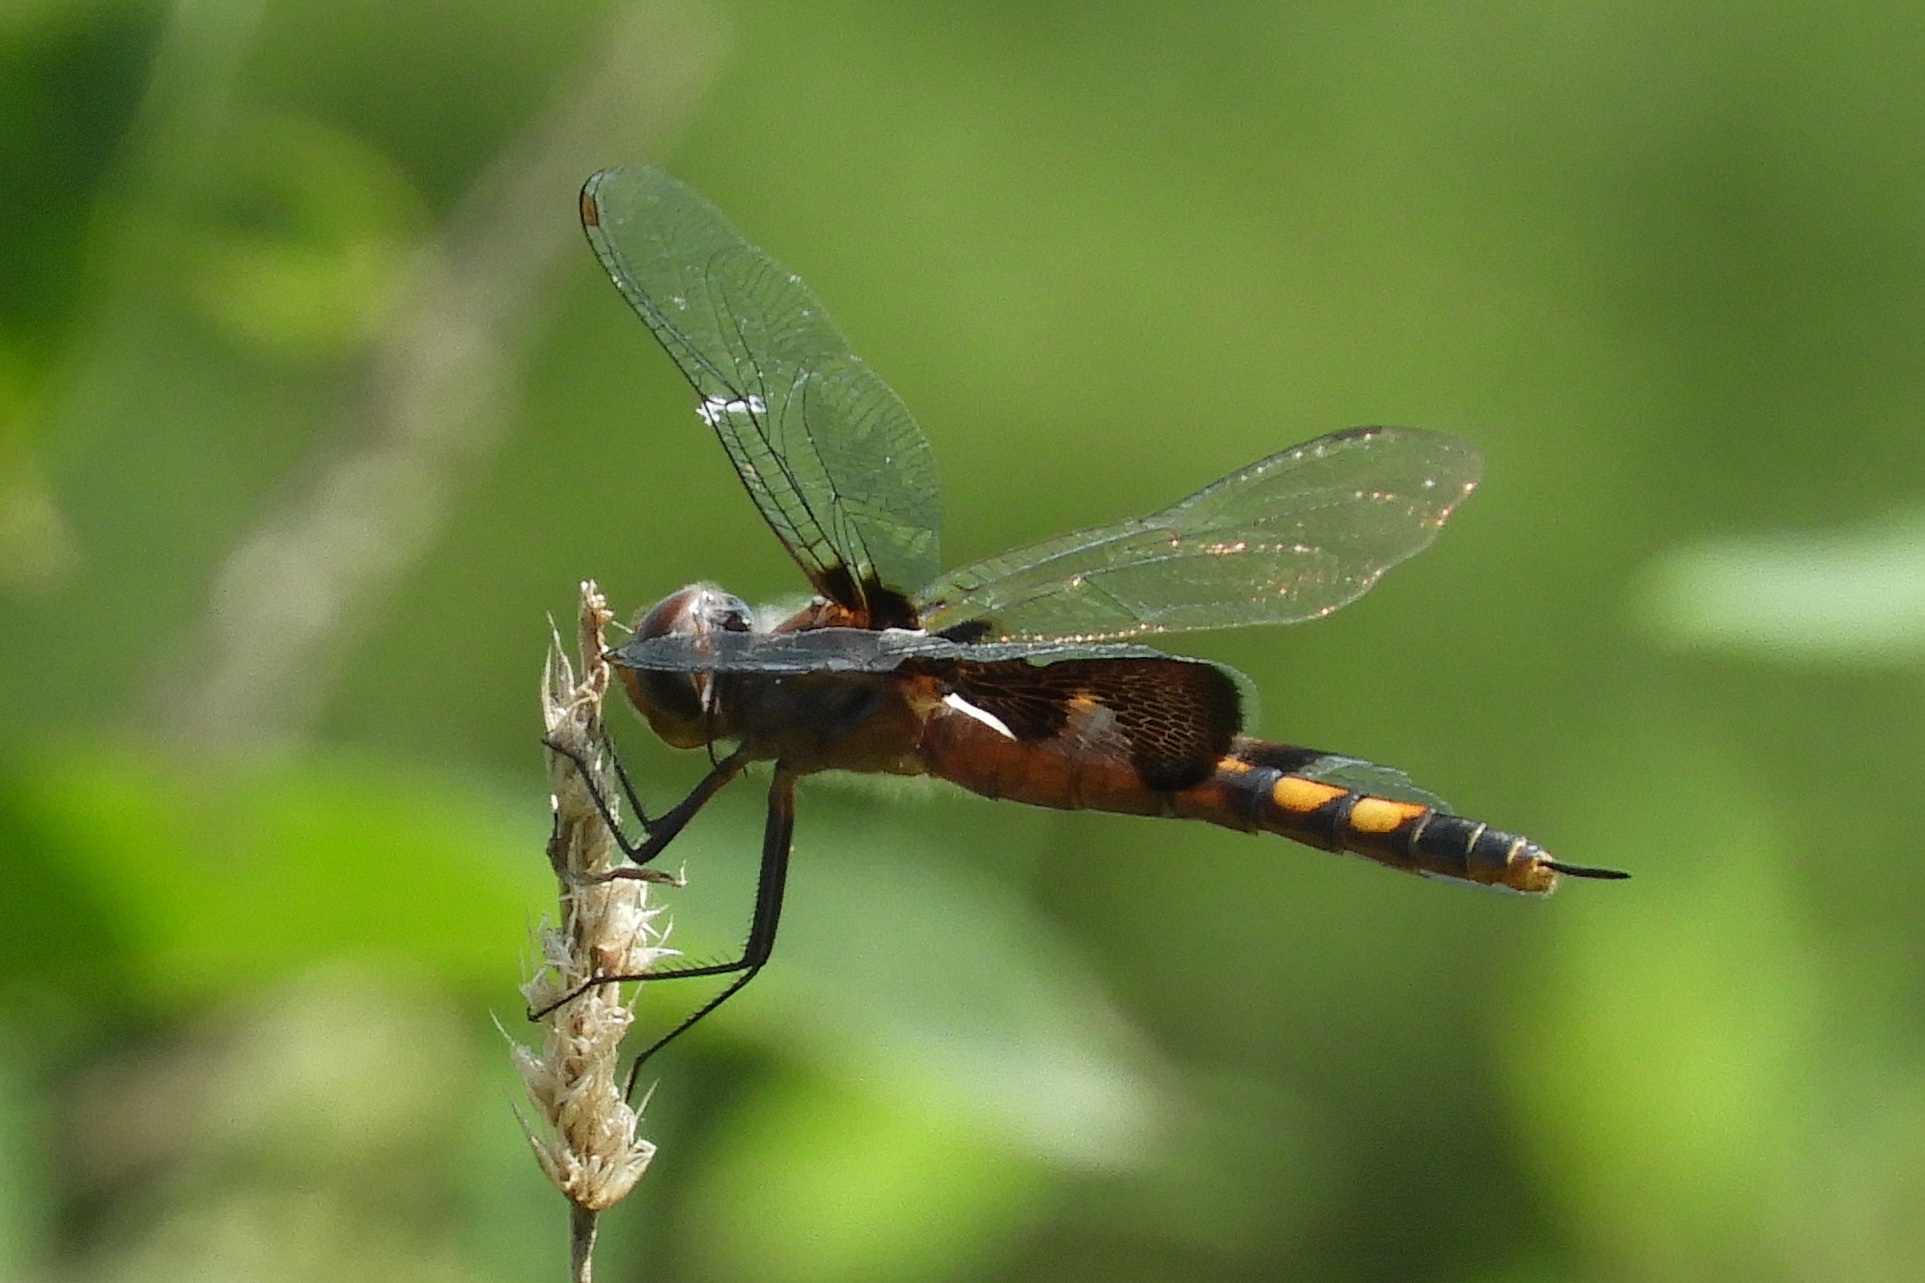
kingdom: Animalia
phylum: Arthropoda
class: Insecta
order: Odonata
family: Libellulidae
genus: Tramea
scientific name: Tramea lacerata
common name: Black saddlebags
